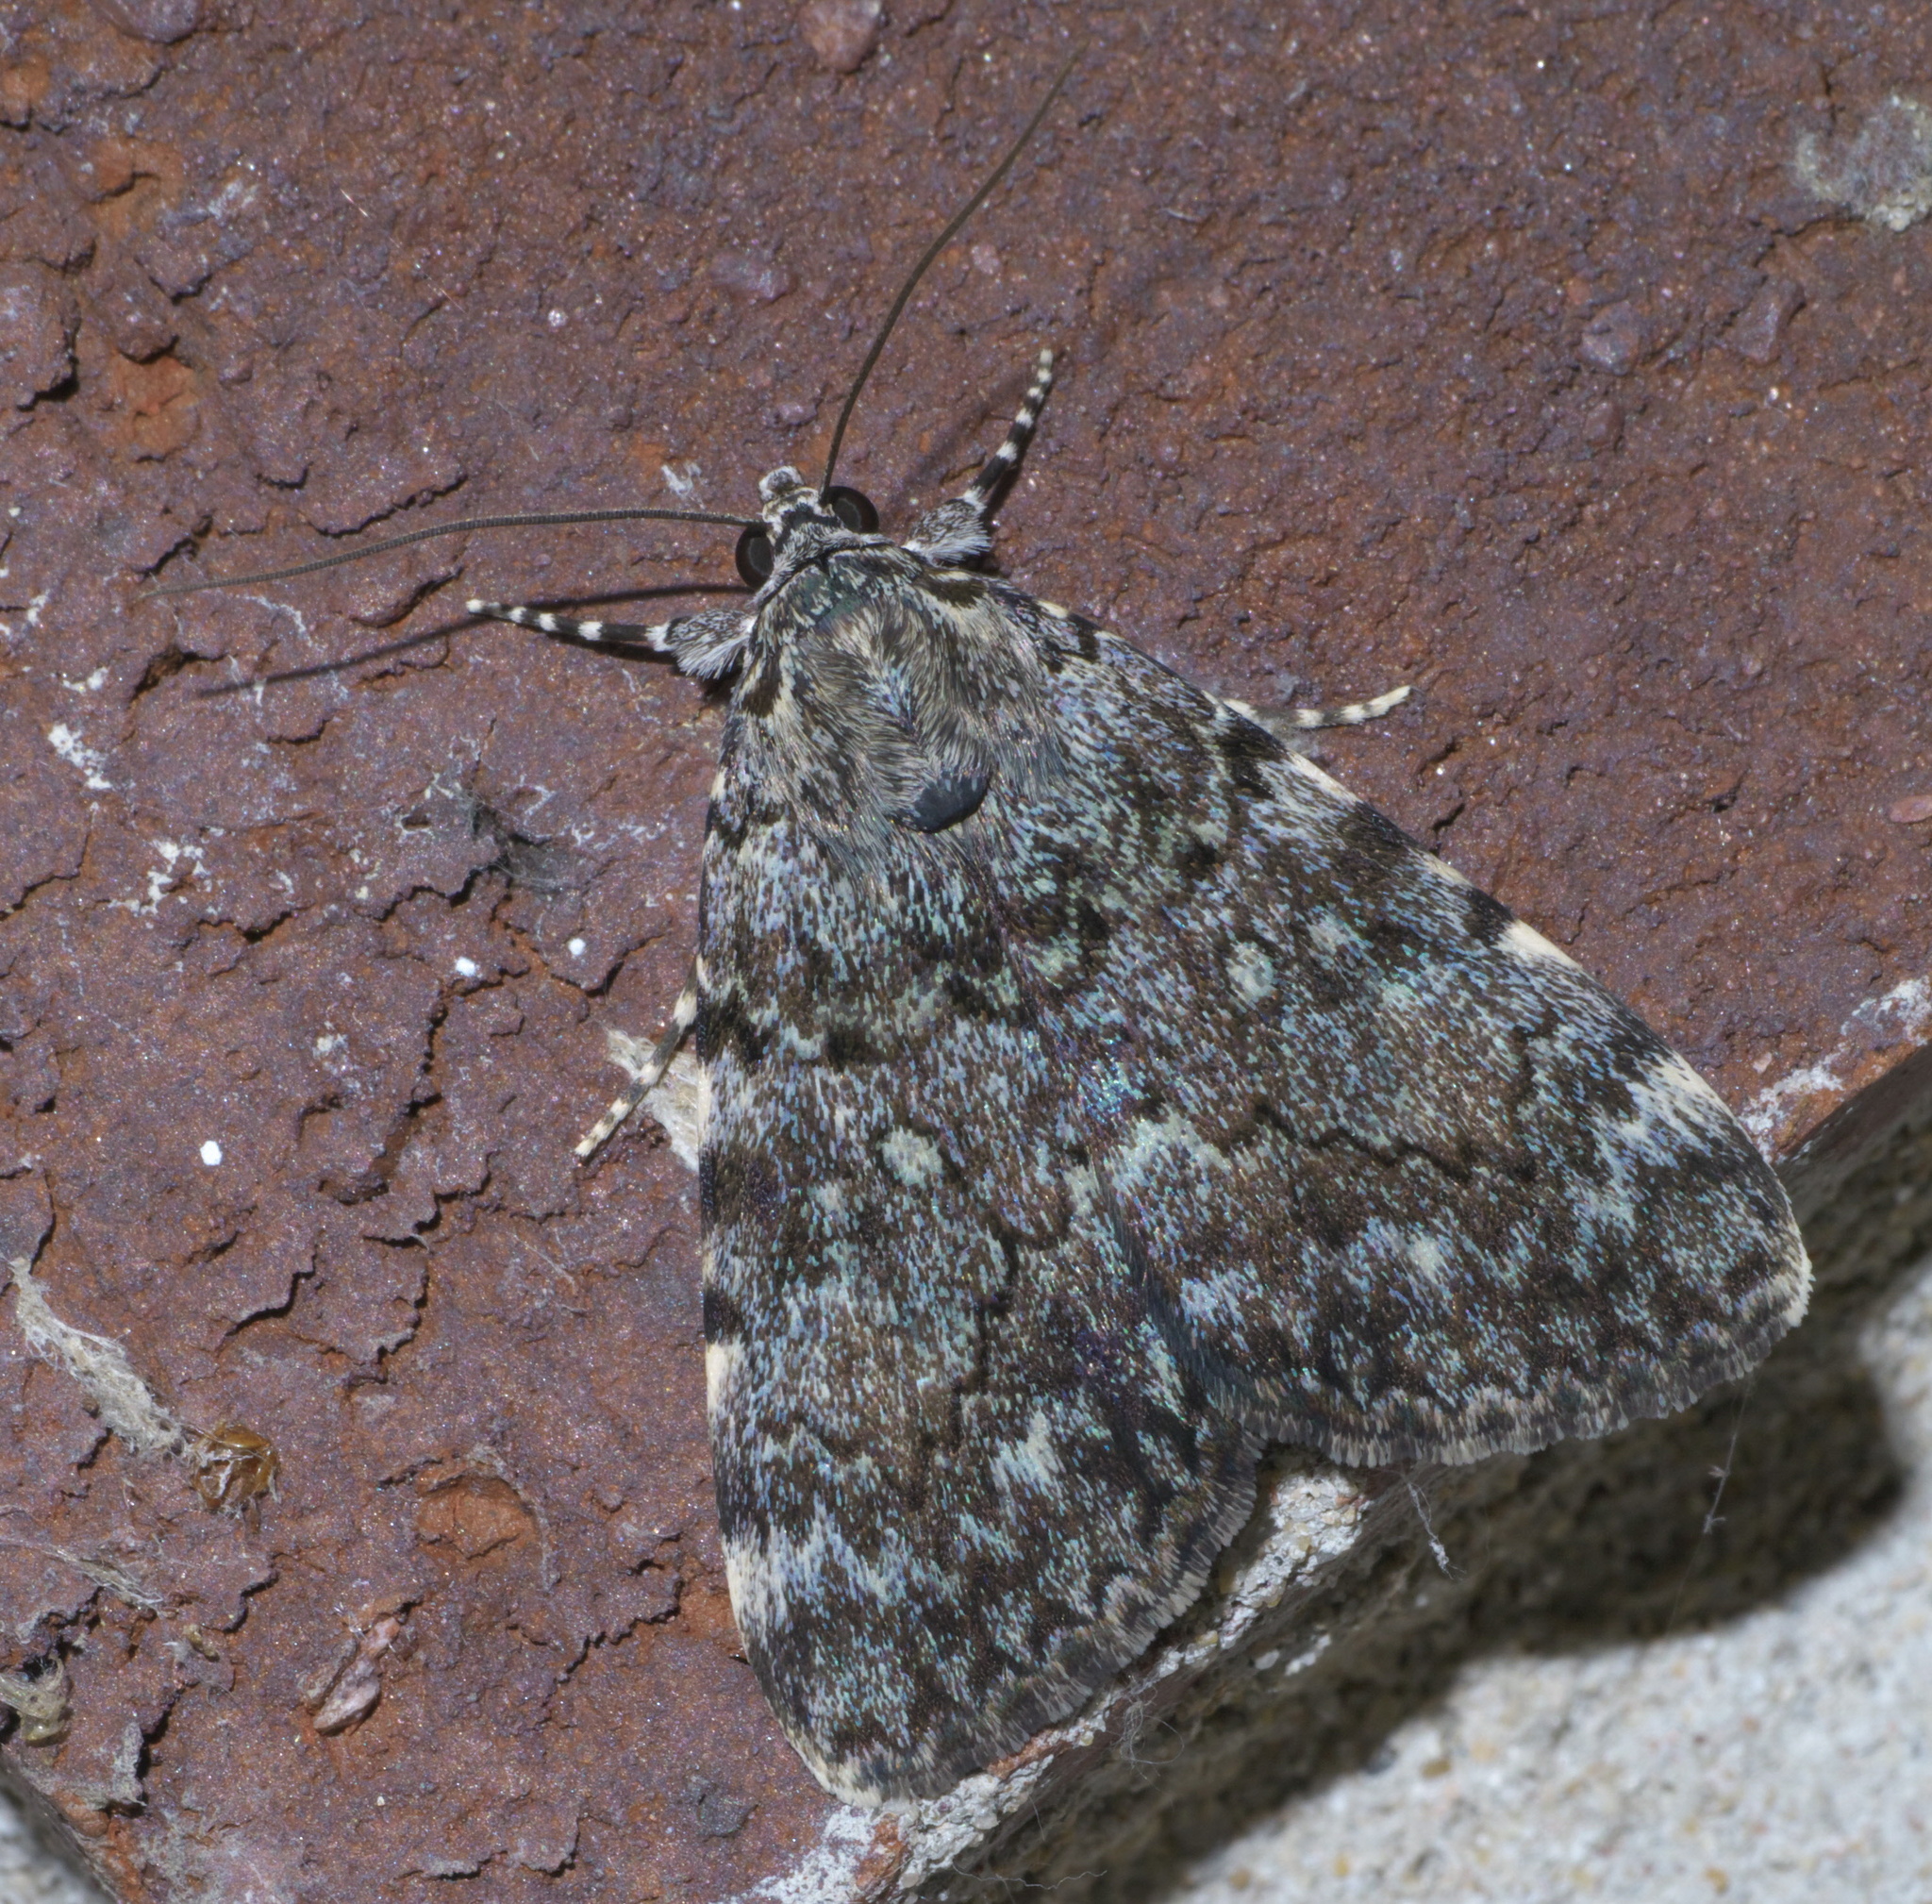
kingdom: Animalia
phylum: Arthropoda
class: Insecta
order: Lepidoptera
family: Erebidae
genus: Catocala
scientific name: Catocala lineella
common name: Little lined underwing
